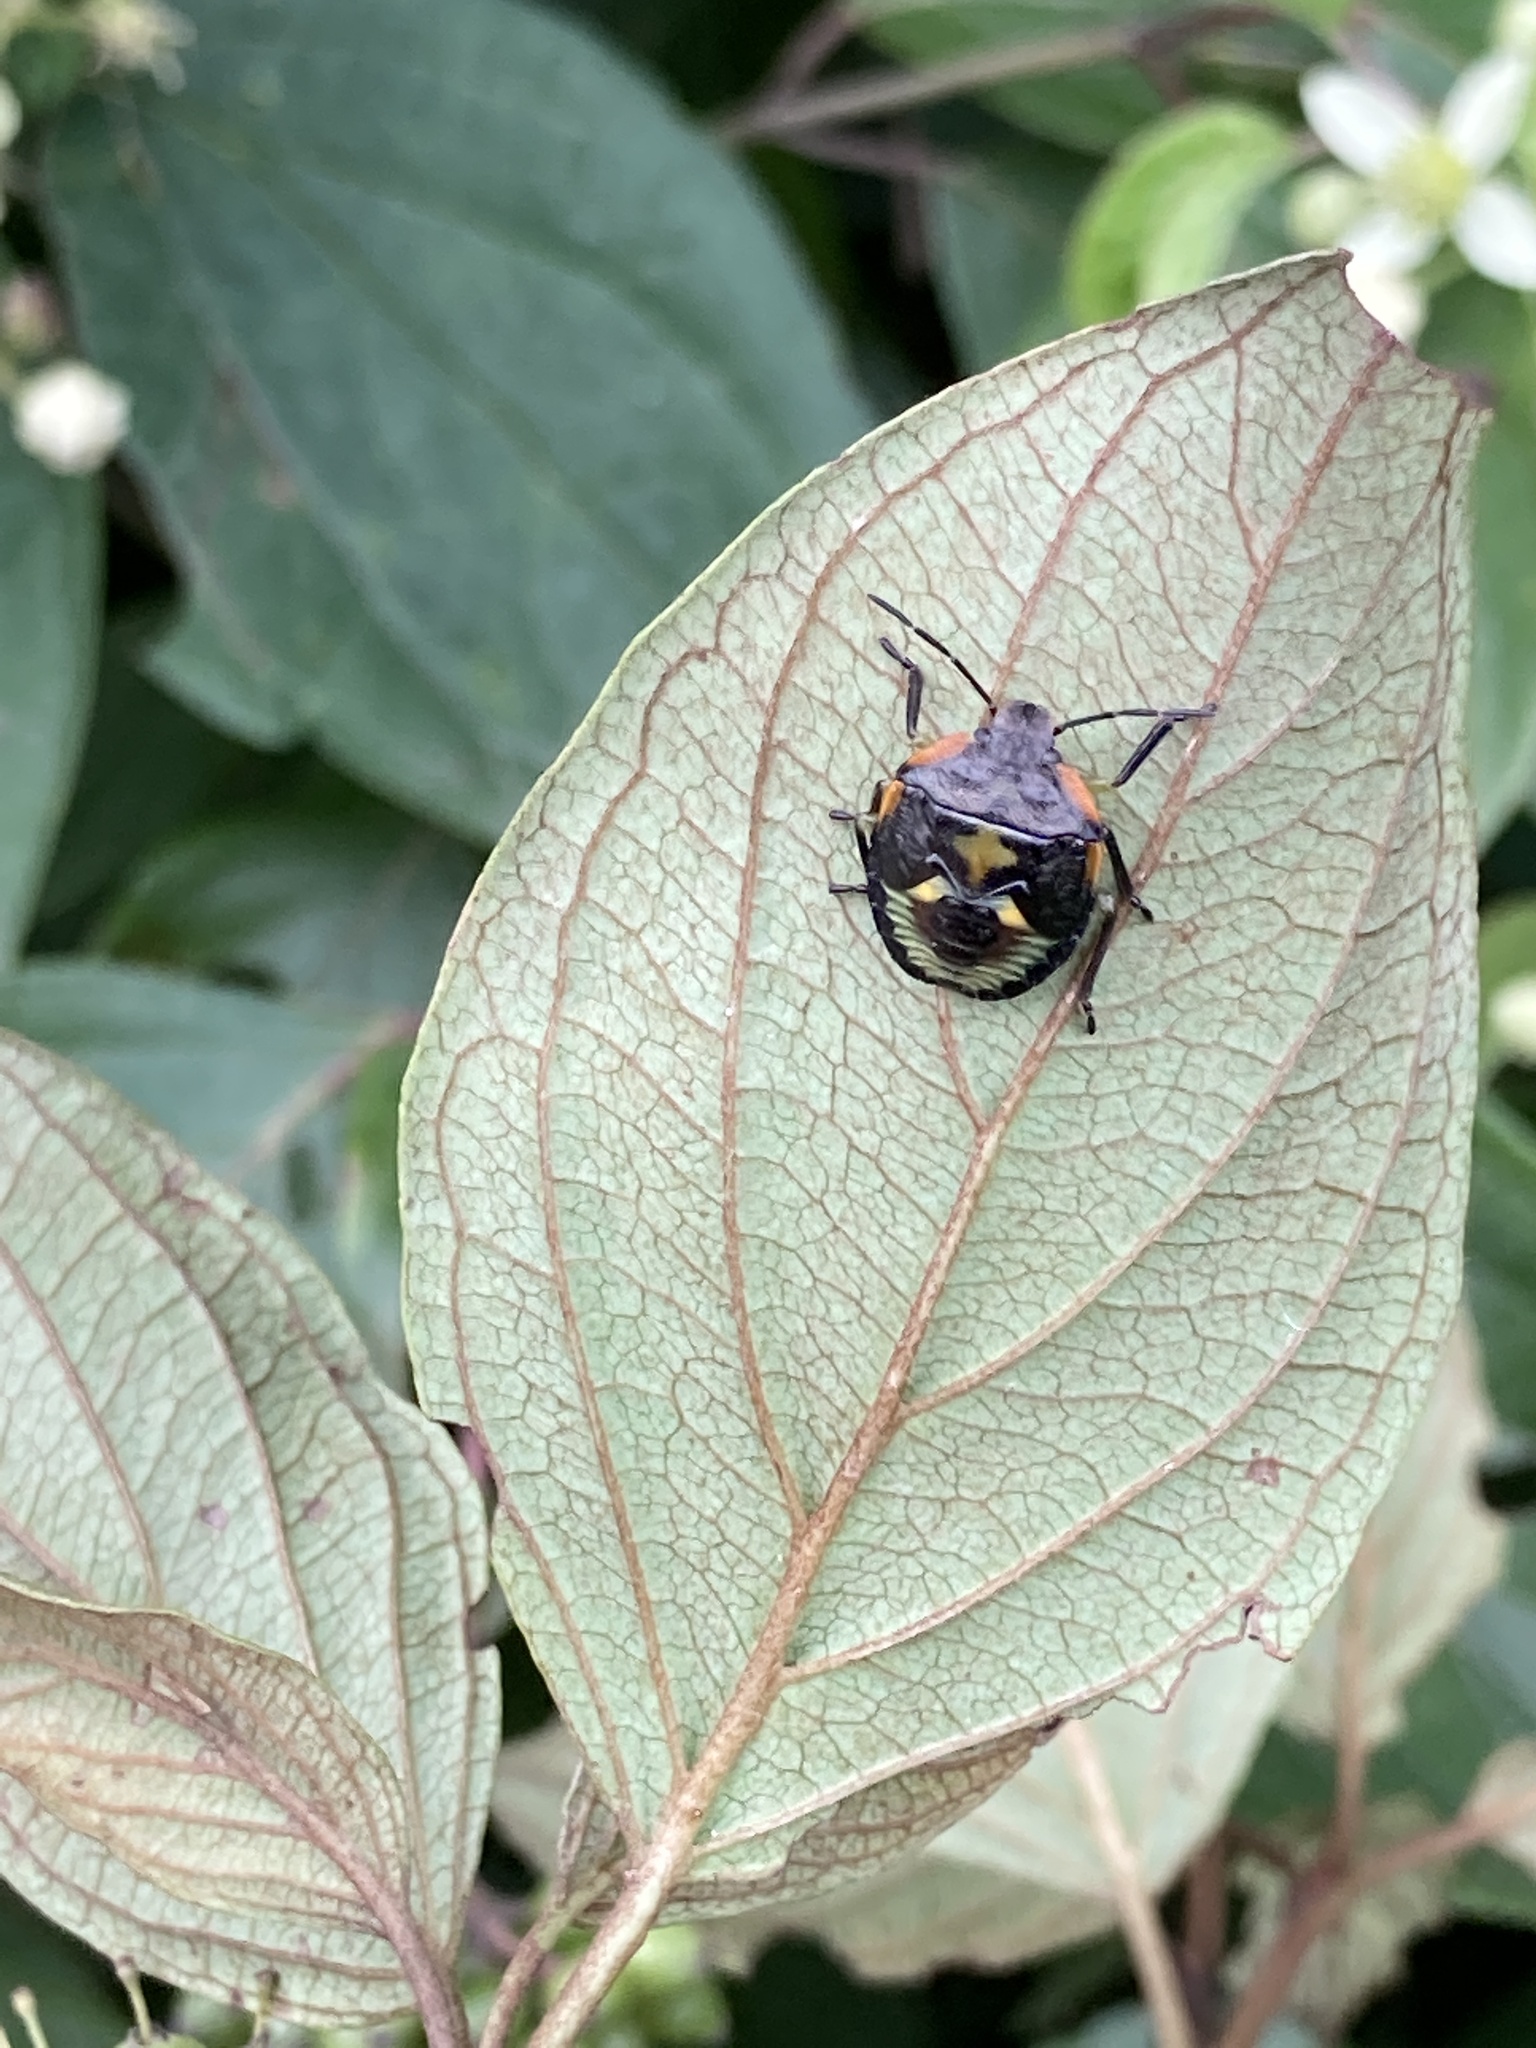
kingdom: Animalia
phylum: Arthropoda
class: Insecta
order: Hemiptera
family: Pentatomidae
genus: Chinavia
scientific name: Chinavia hilaris
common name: Green stink bug
